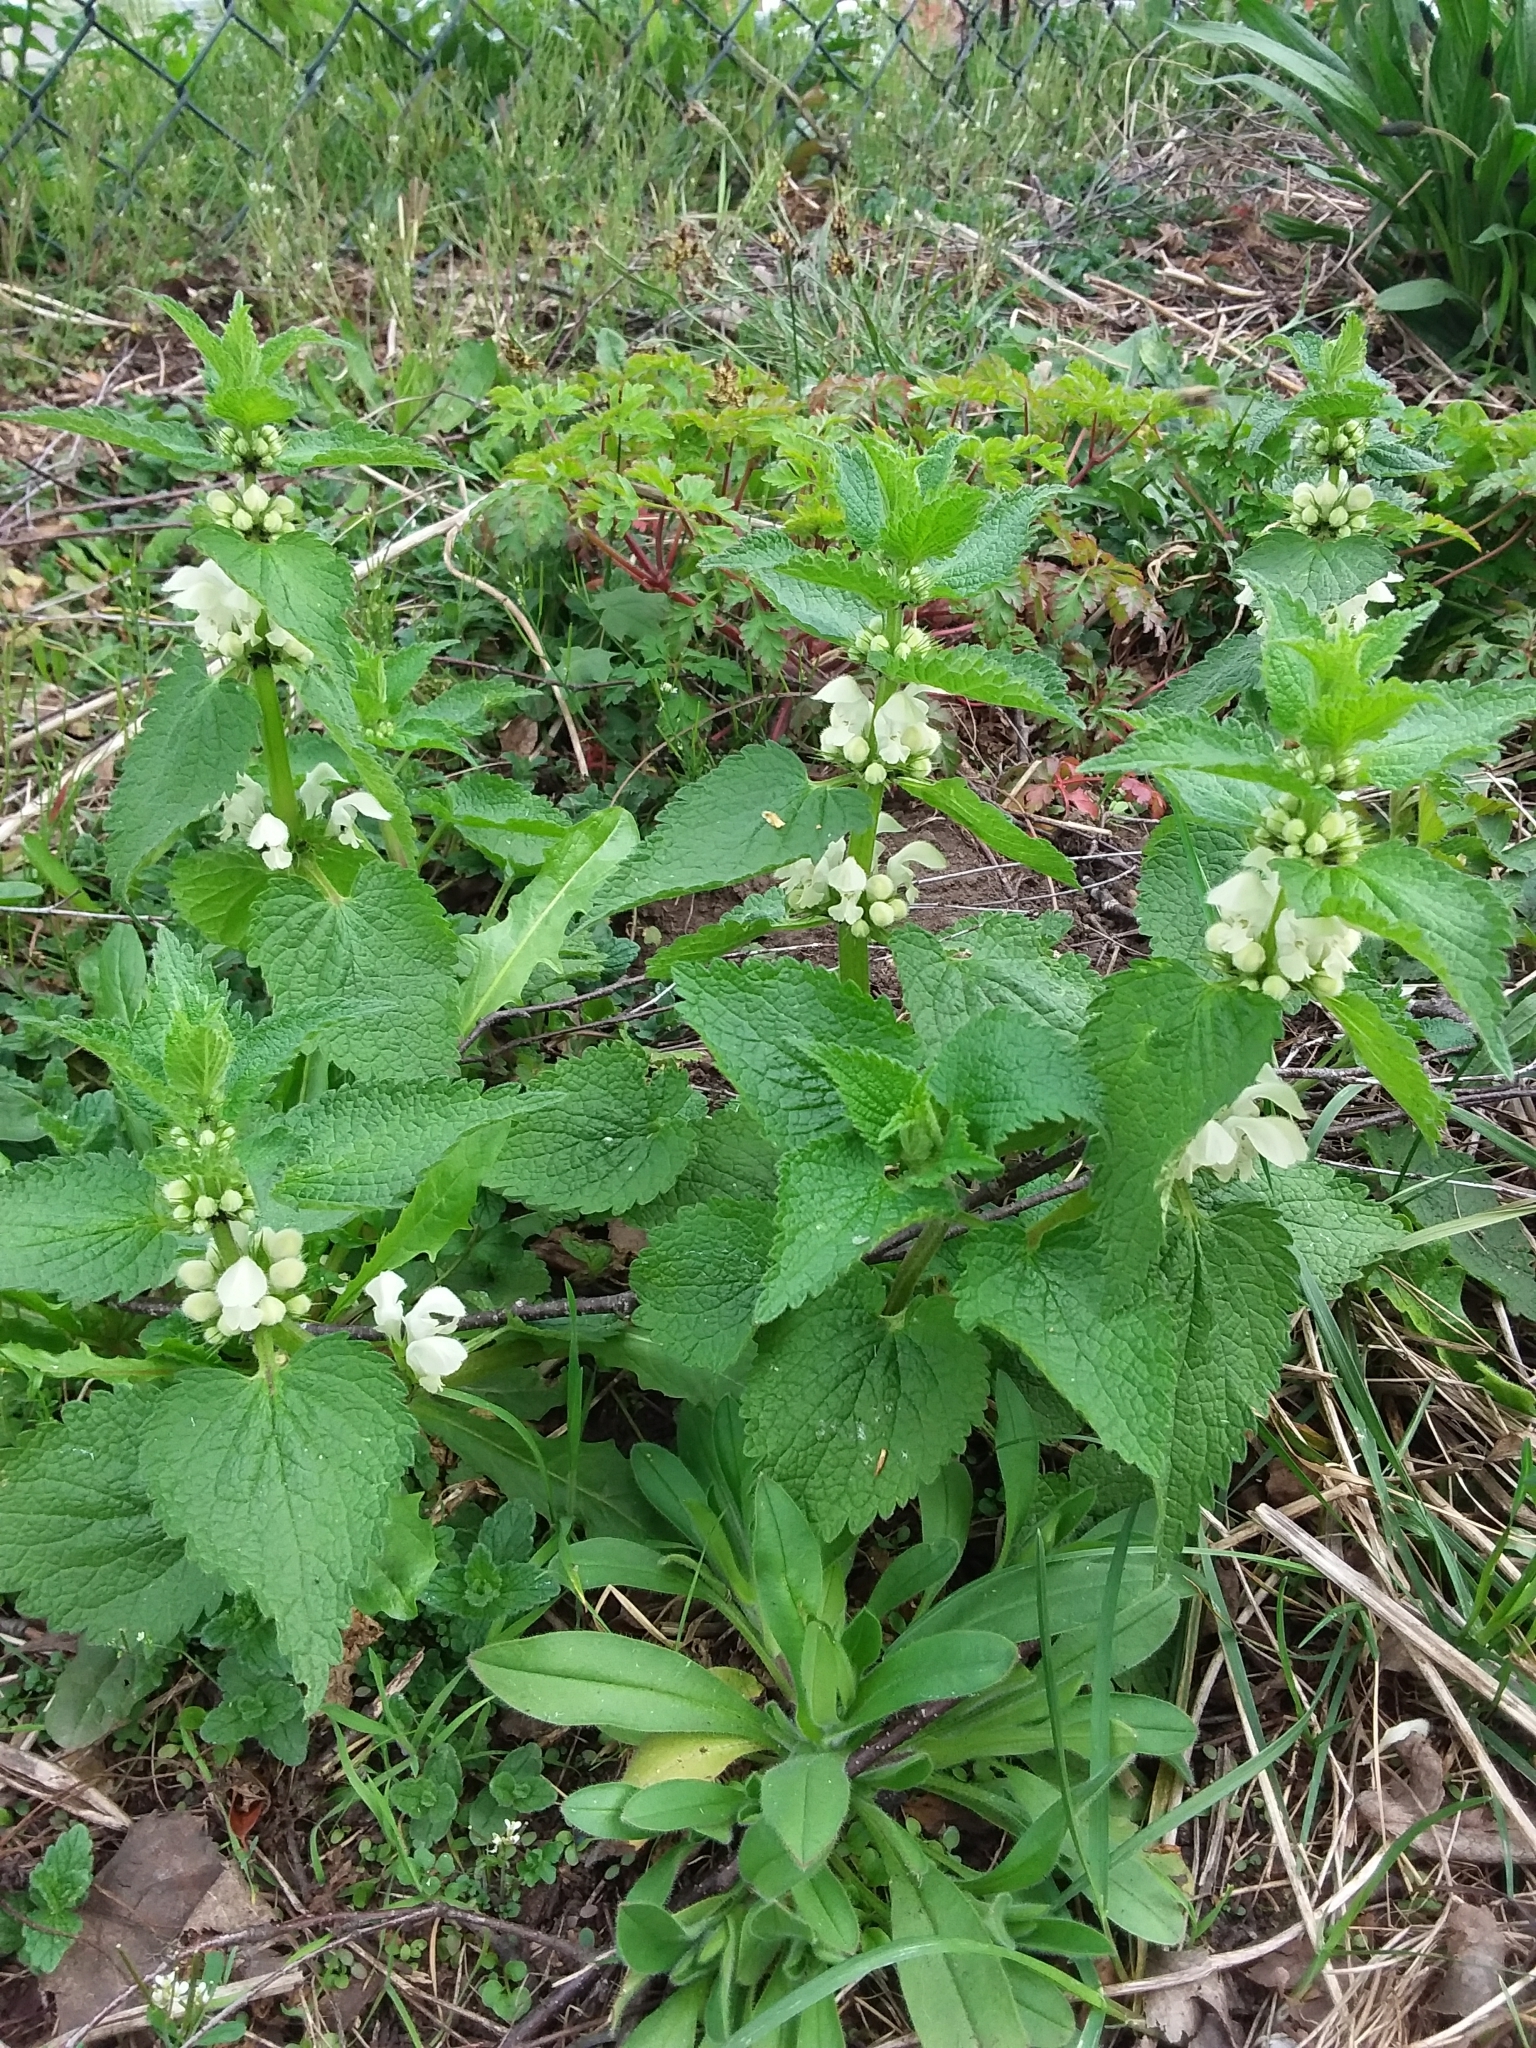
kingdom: Plantae
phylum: Tracheophyta
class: Magnoliopsida
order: Lamiales
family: Lamiaceae
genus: Lamium
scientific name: Lamium album
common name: White dead-nettle
